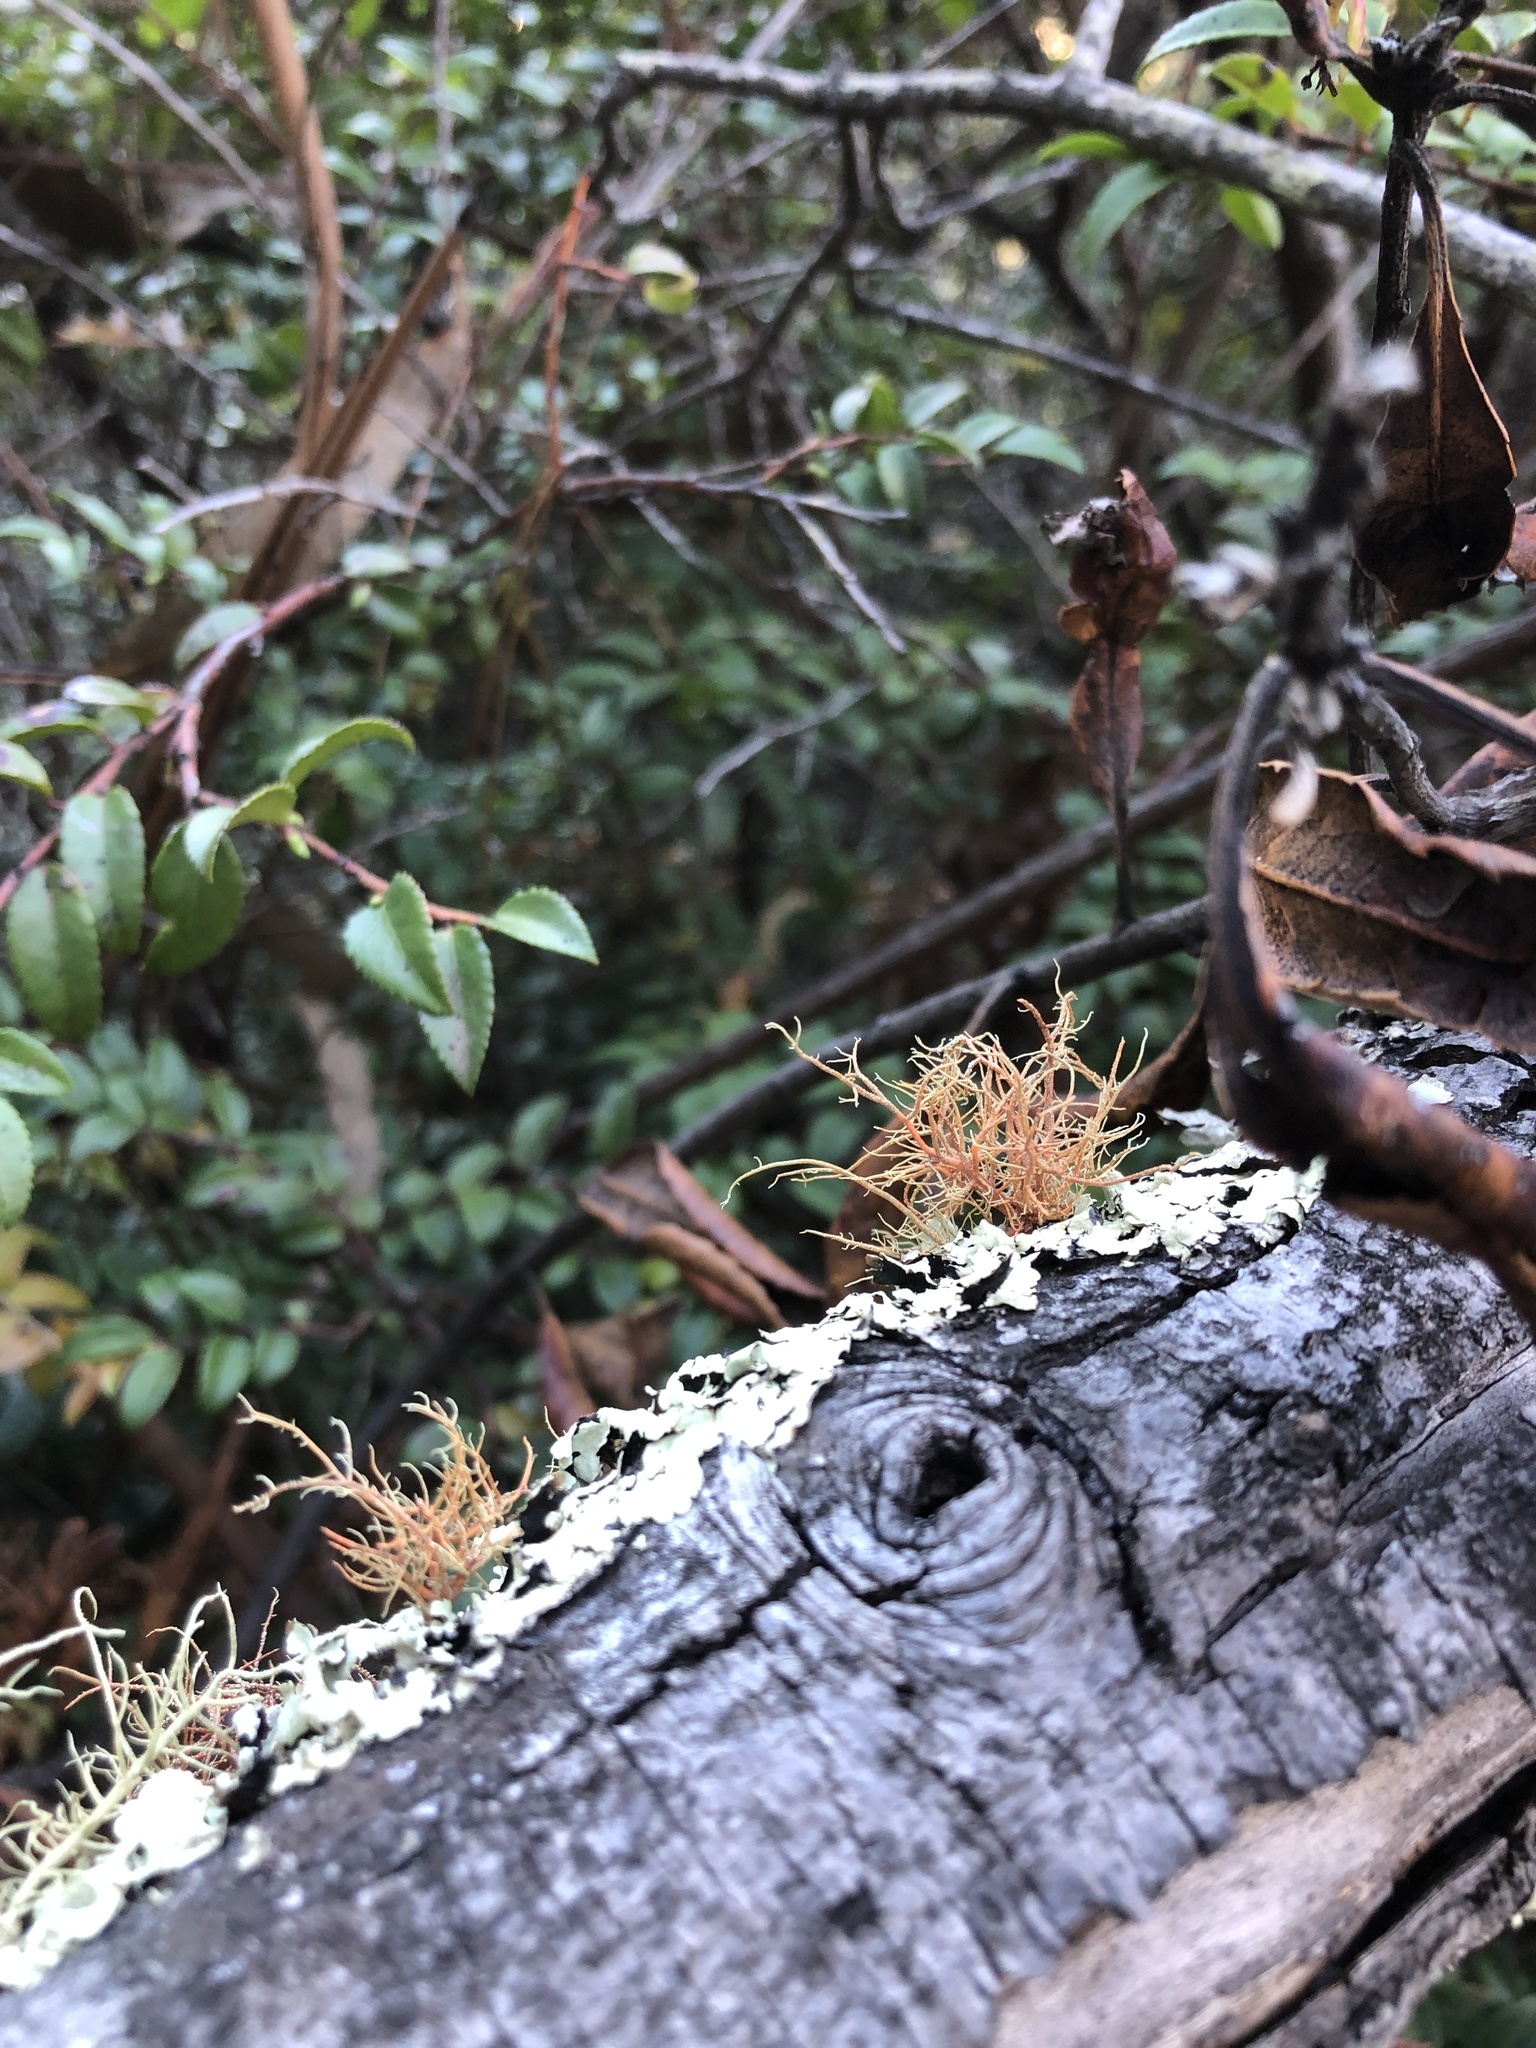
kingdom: Fungi
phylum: Ascomycota
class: Lecanoromycetes
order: Lecanorales
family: Parmeliaceae
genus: Usnea
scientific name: Usnea rubicunda
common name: Red beard lichen
